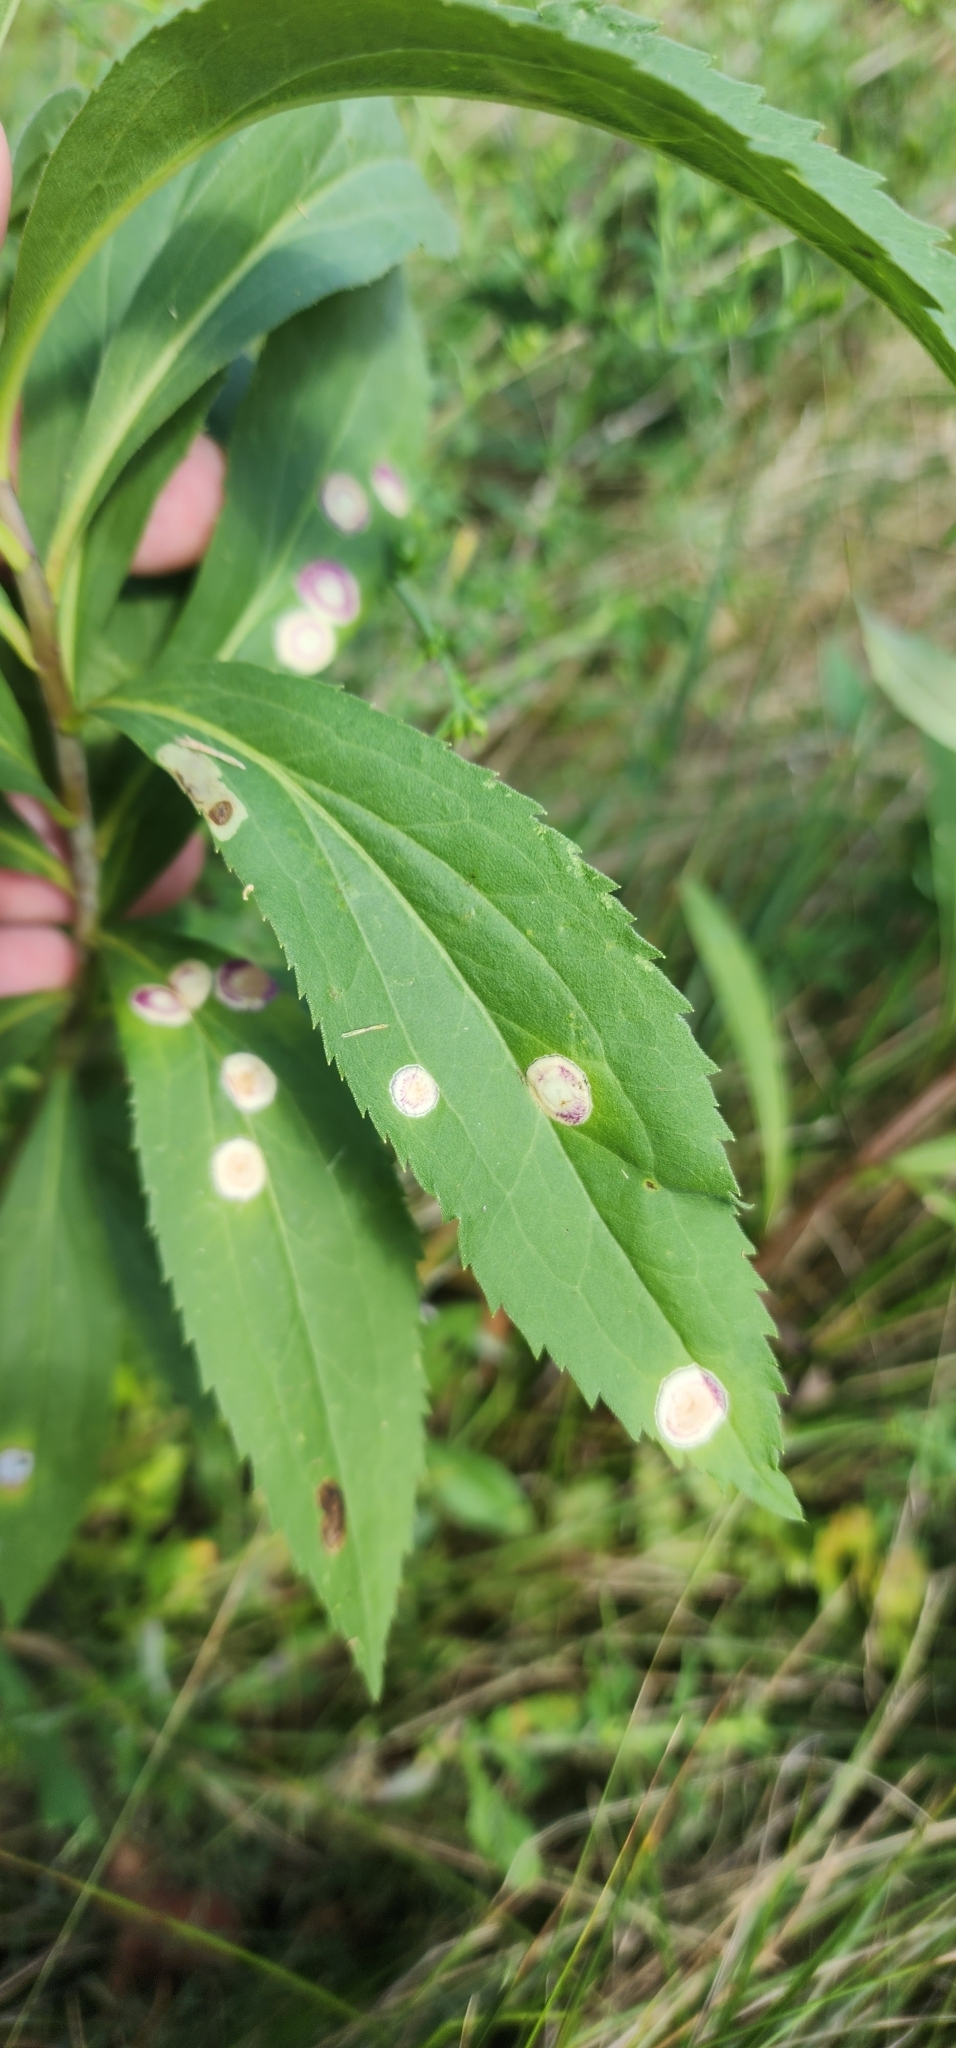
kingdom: Animalia
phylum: Arthropoda
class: Insecta
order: Diptera
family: Cecidomyiidae
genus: Asteromyia
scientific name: Asteromyia carbonifera
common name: Carbonifera goldenrod gall midge
